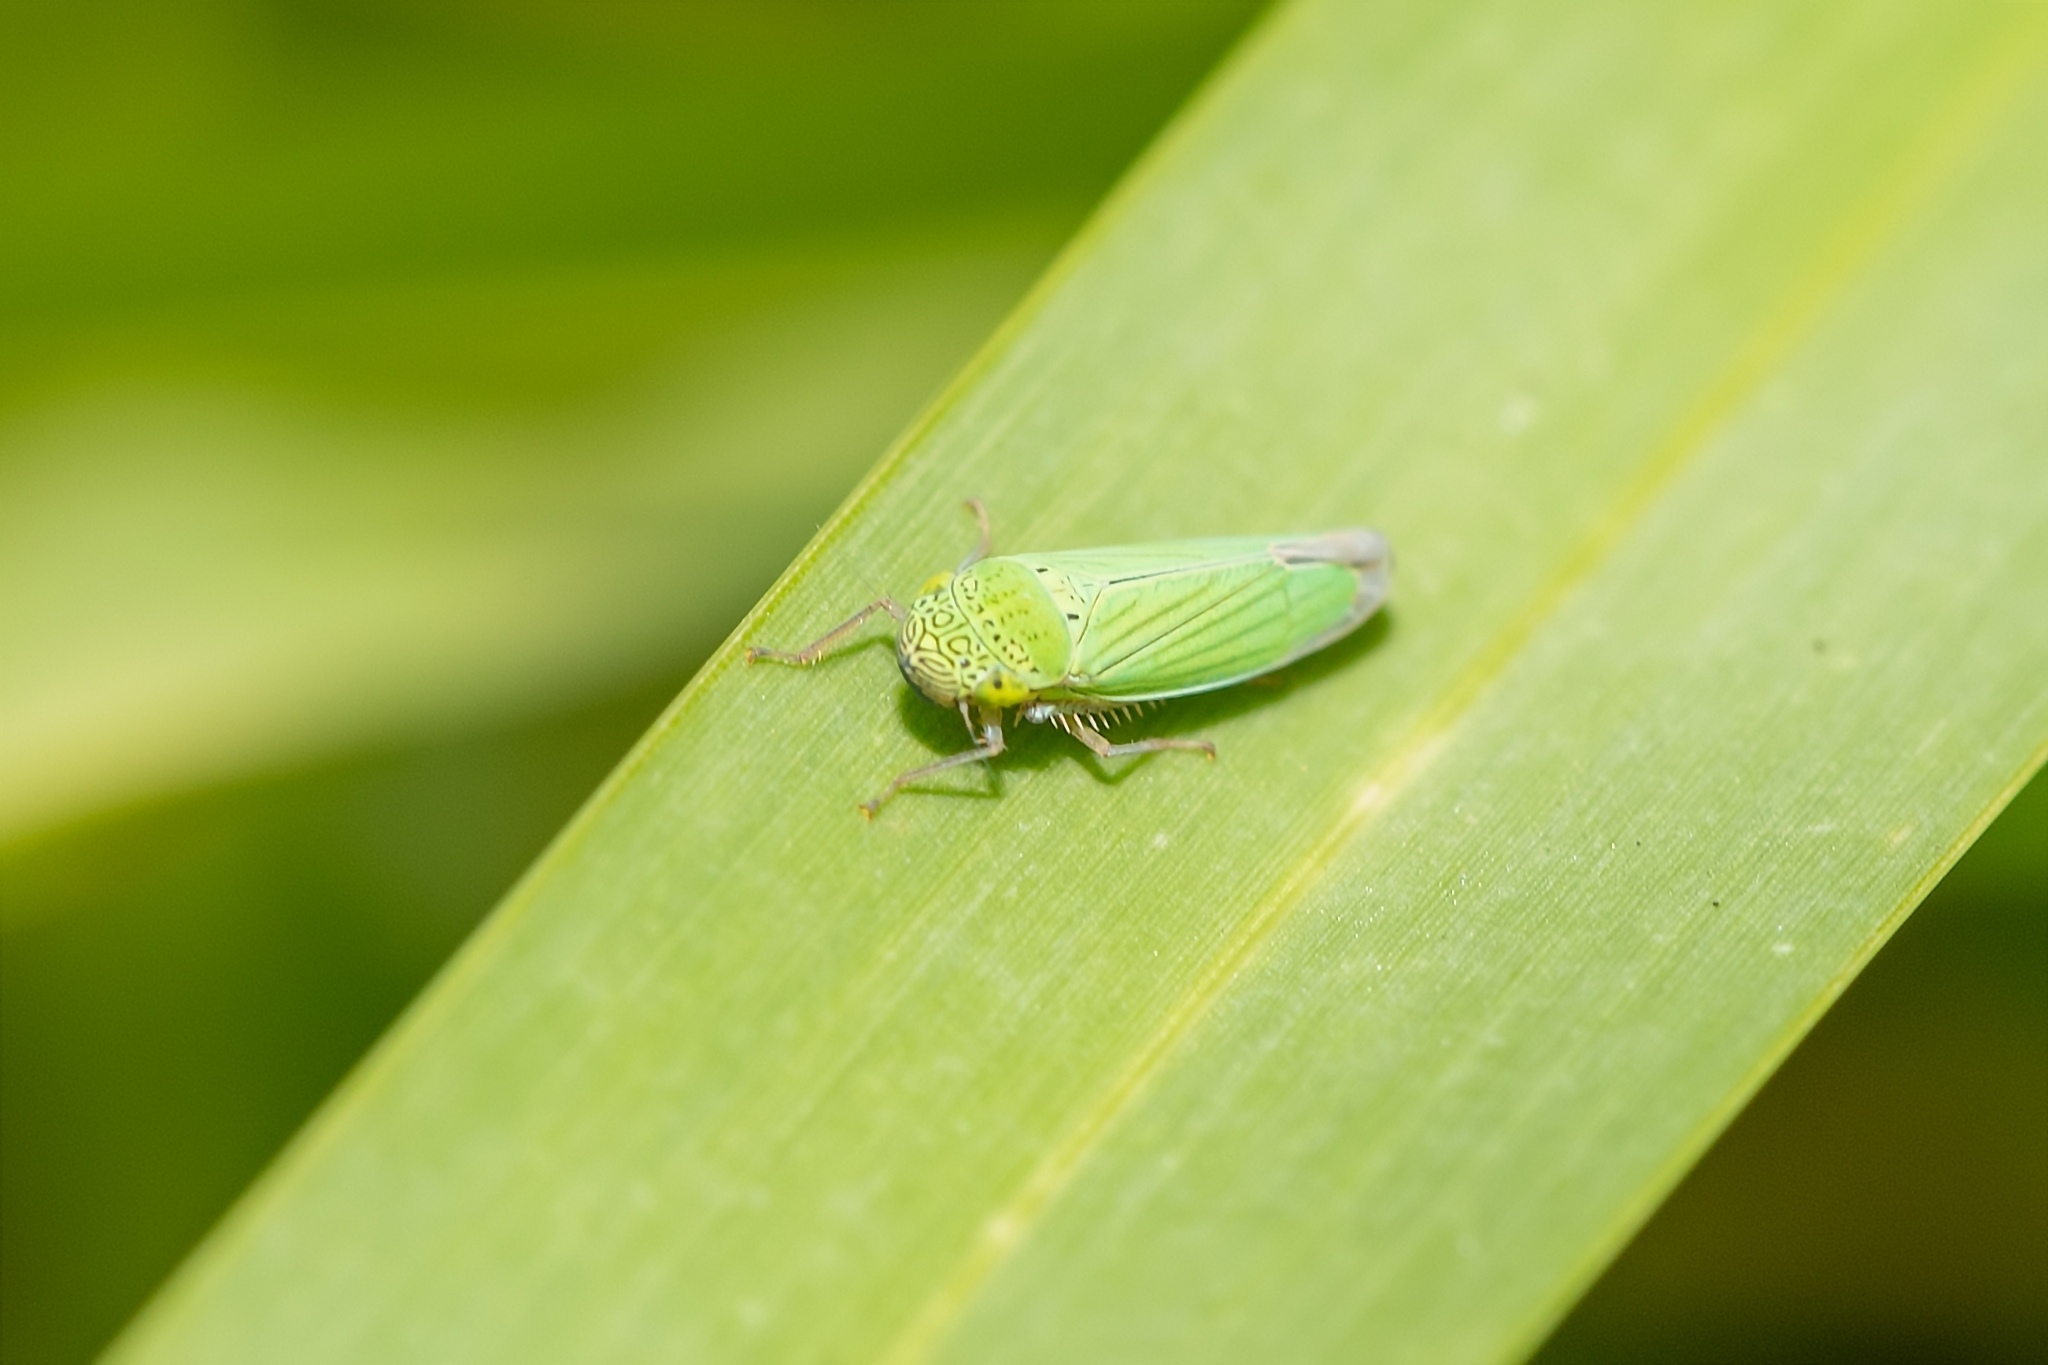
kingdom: Animalia
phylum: Arthropoda
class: Insecta
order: Hemiptera
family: Cicadellidae
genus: Hortensia
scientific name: Hortensia similis
